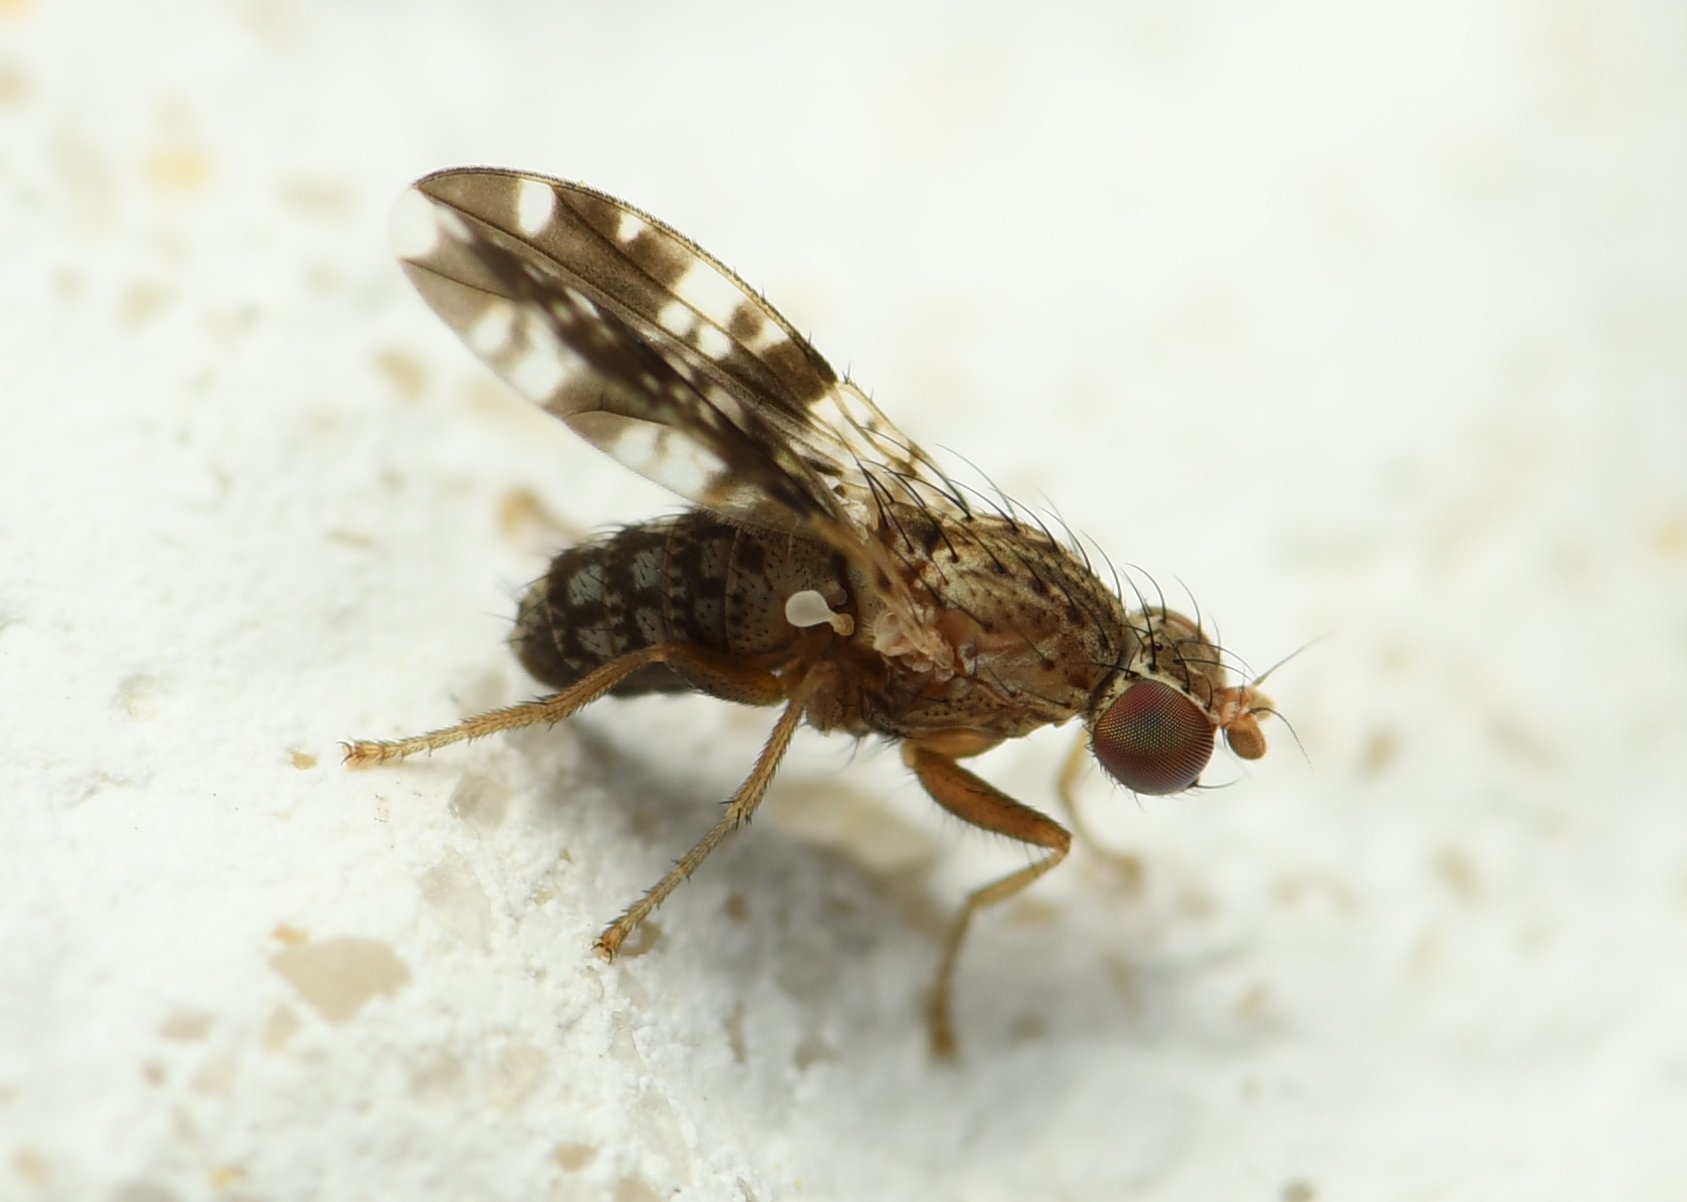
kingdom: Animalia
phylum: Arthropoda
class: Insecta
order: Diptera
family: Heleomyzidae
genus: Trixoscelis
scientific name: Trixoscelis ornata
